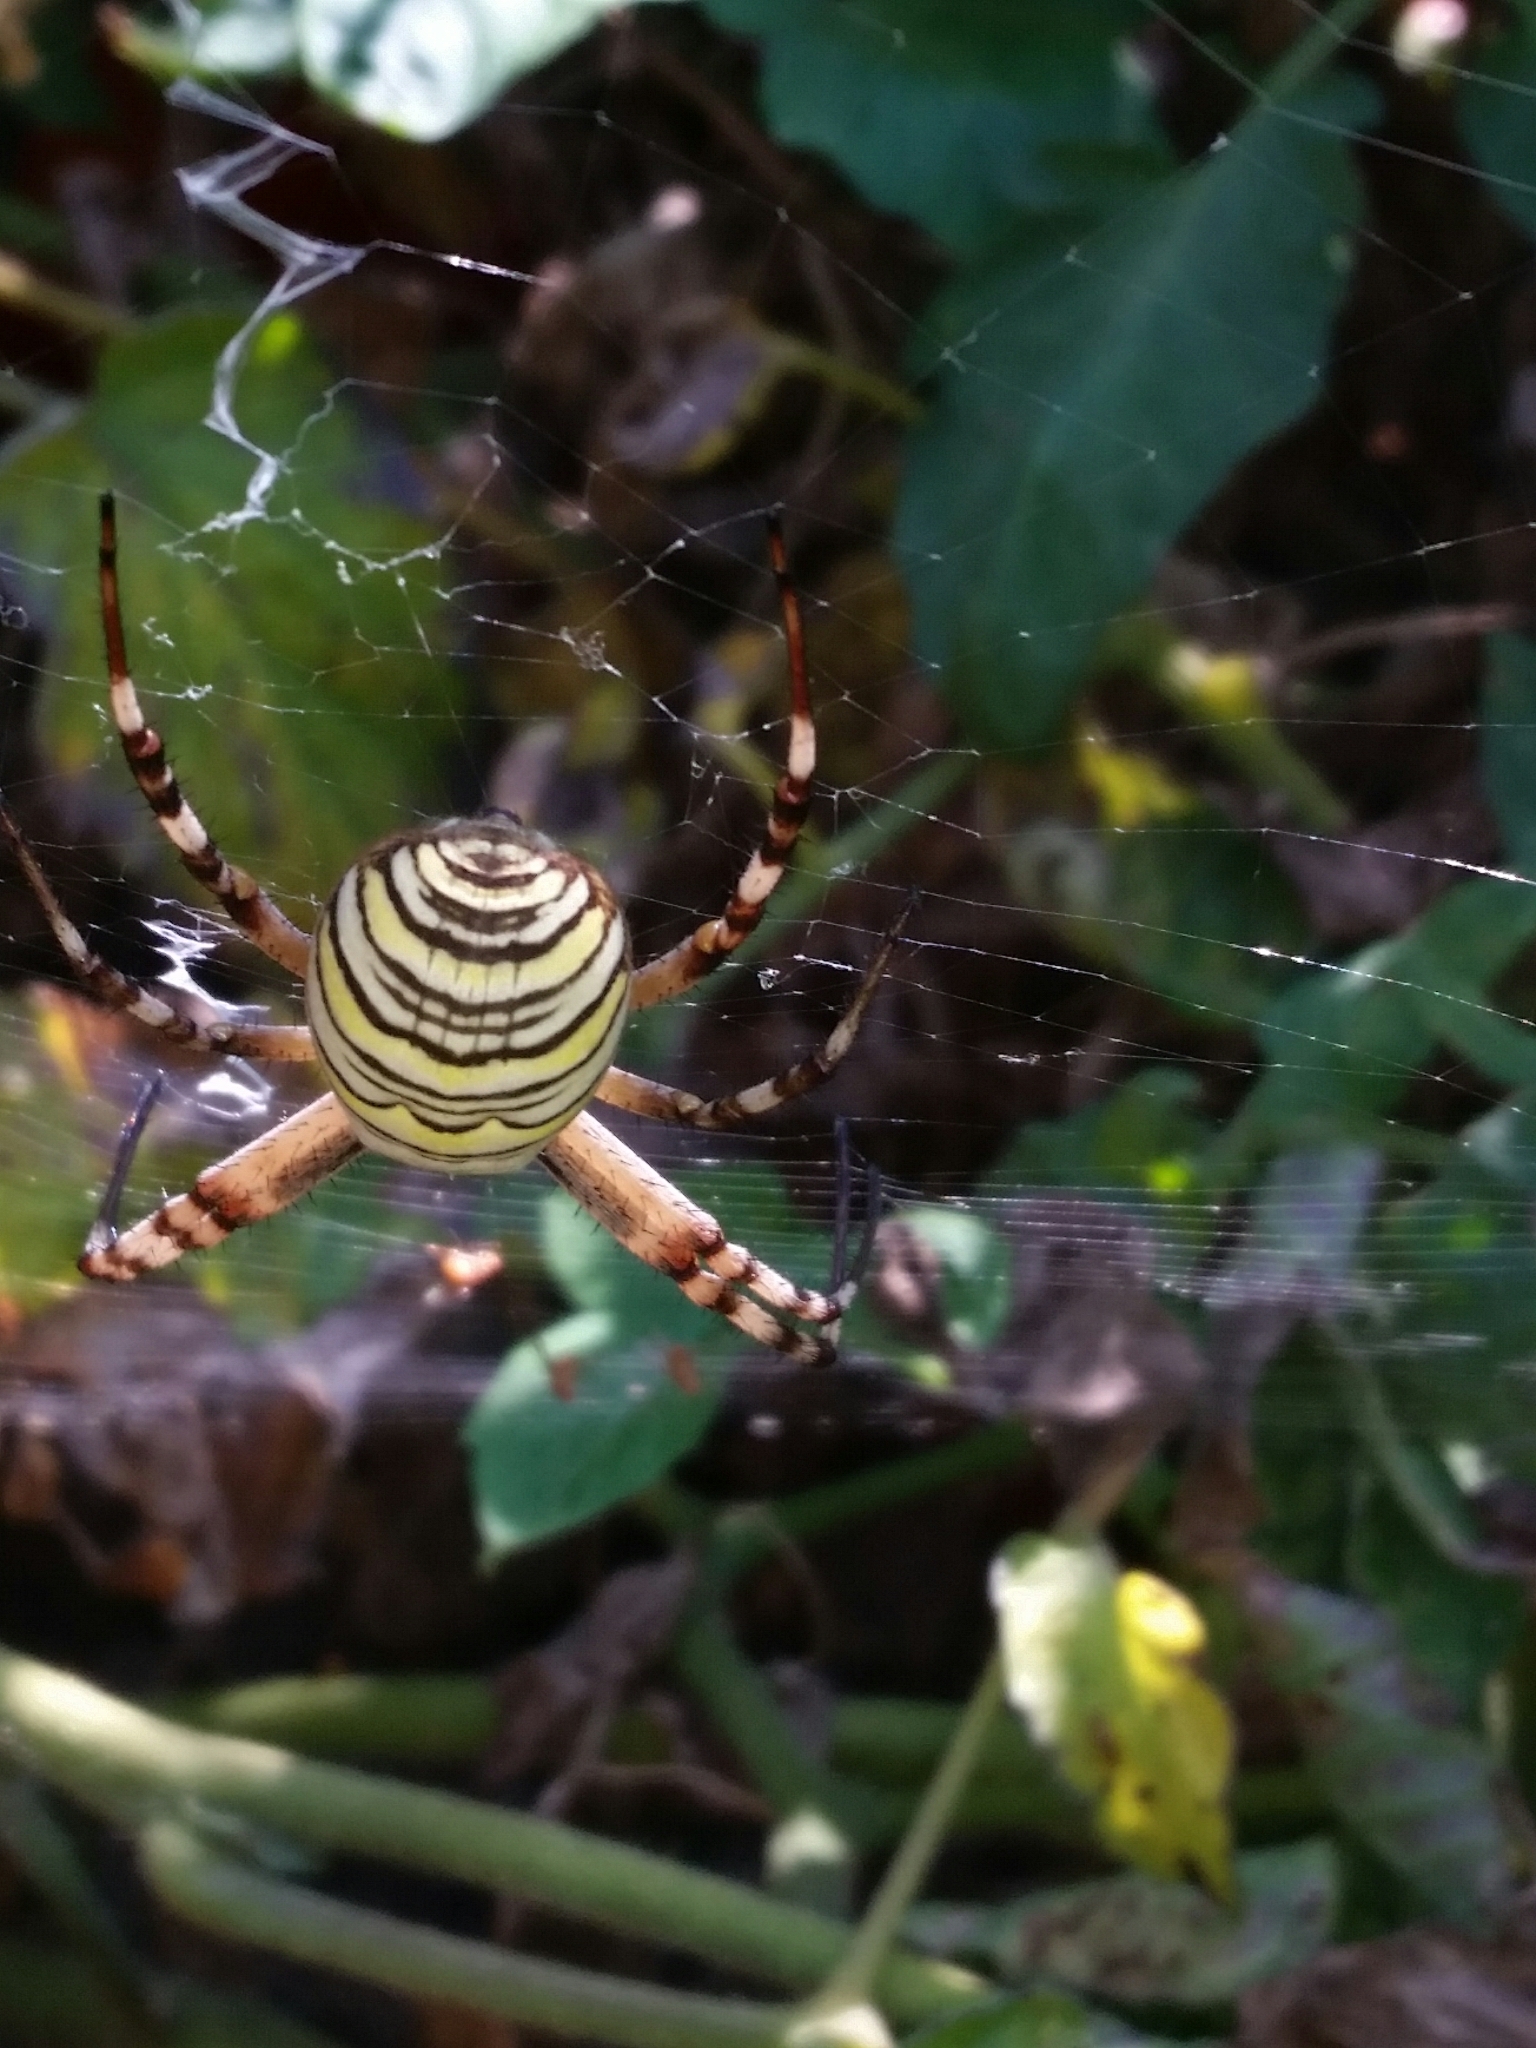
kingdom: Animalia
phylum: Arthropoda
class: Arachnida
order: Araneae
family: Araneidae
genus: Argiope
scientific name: Argiope bruennichi
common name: Wasp spider
